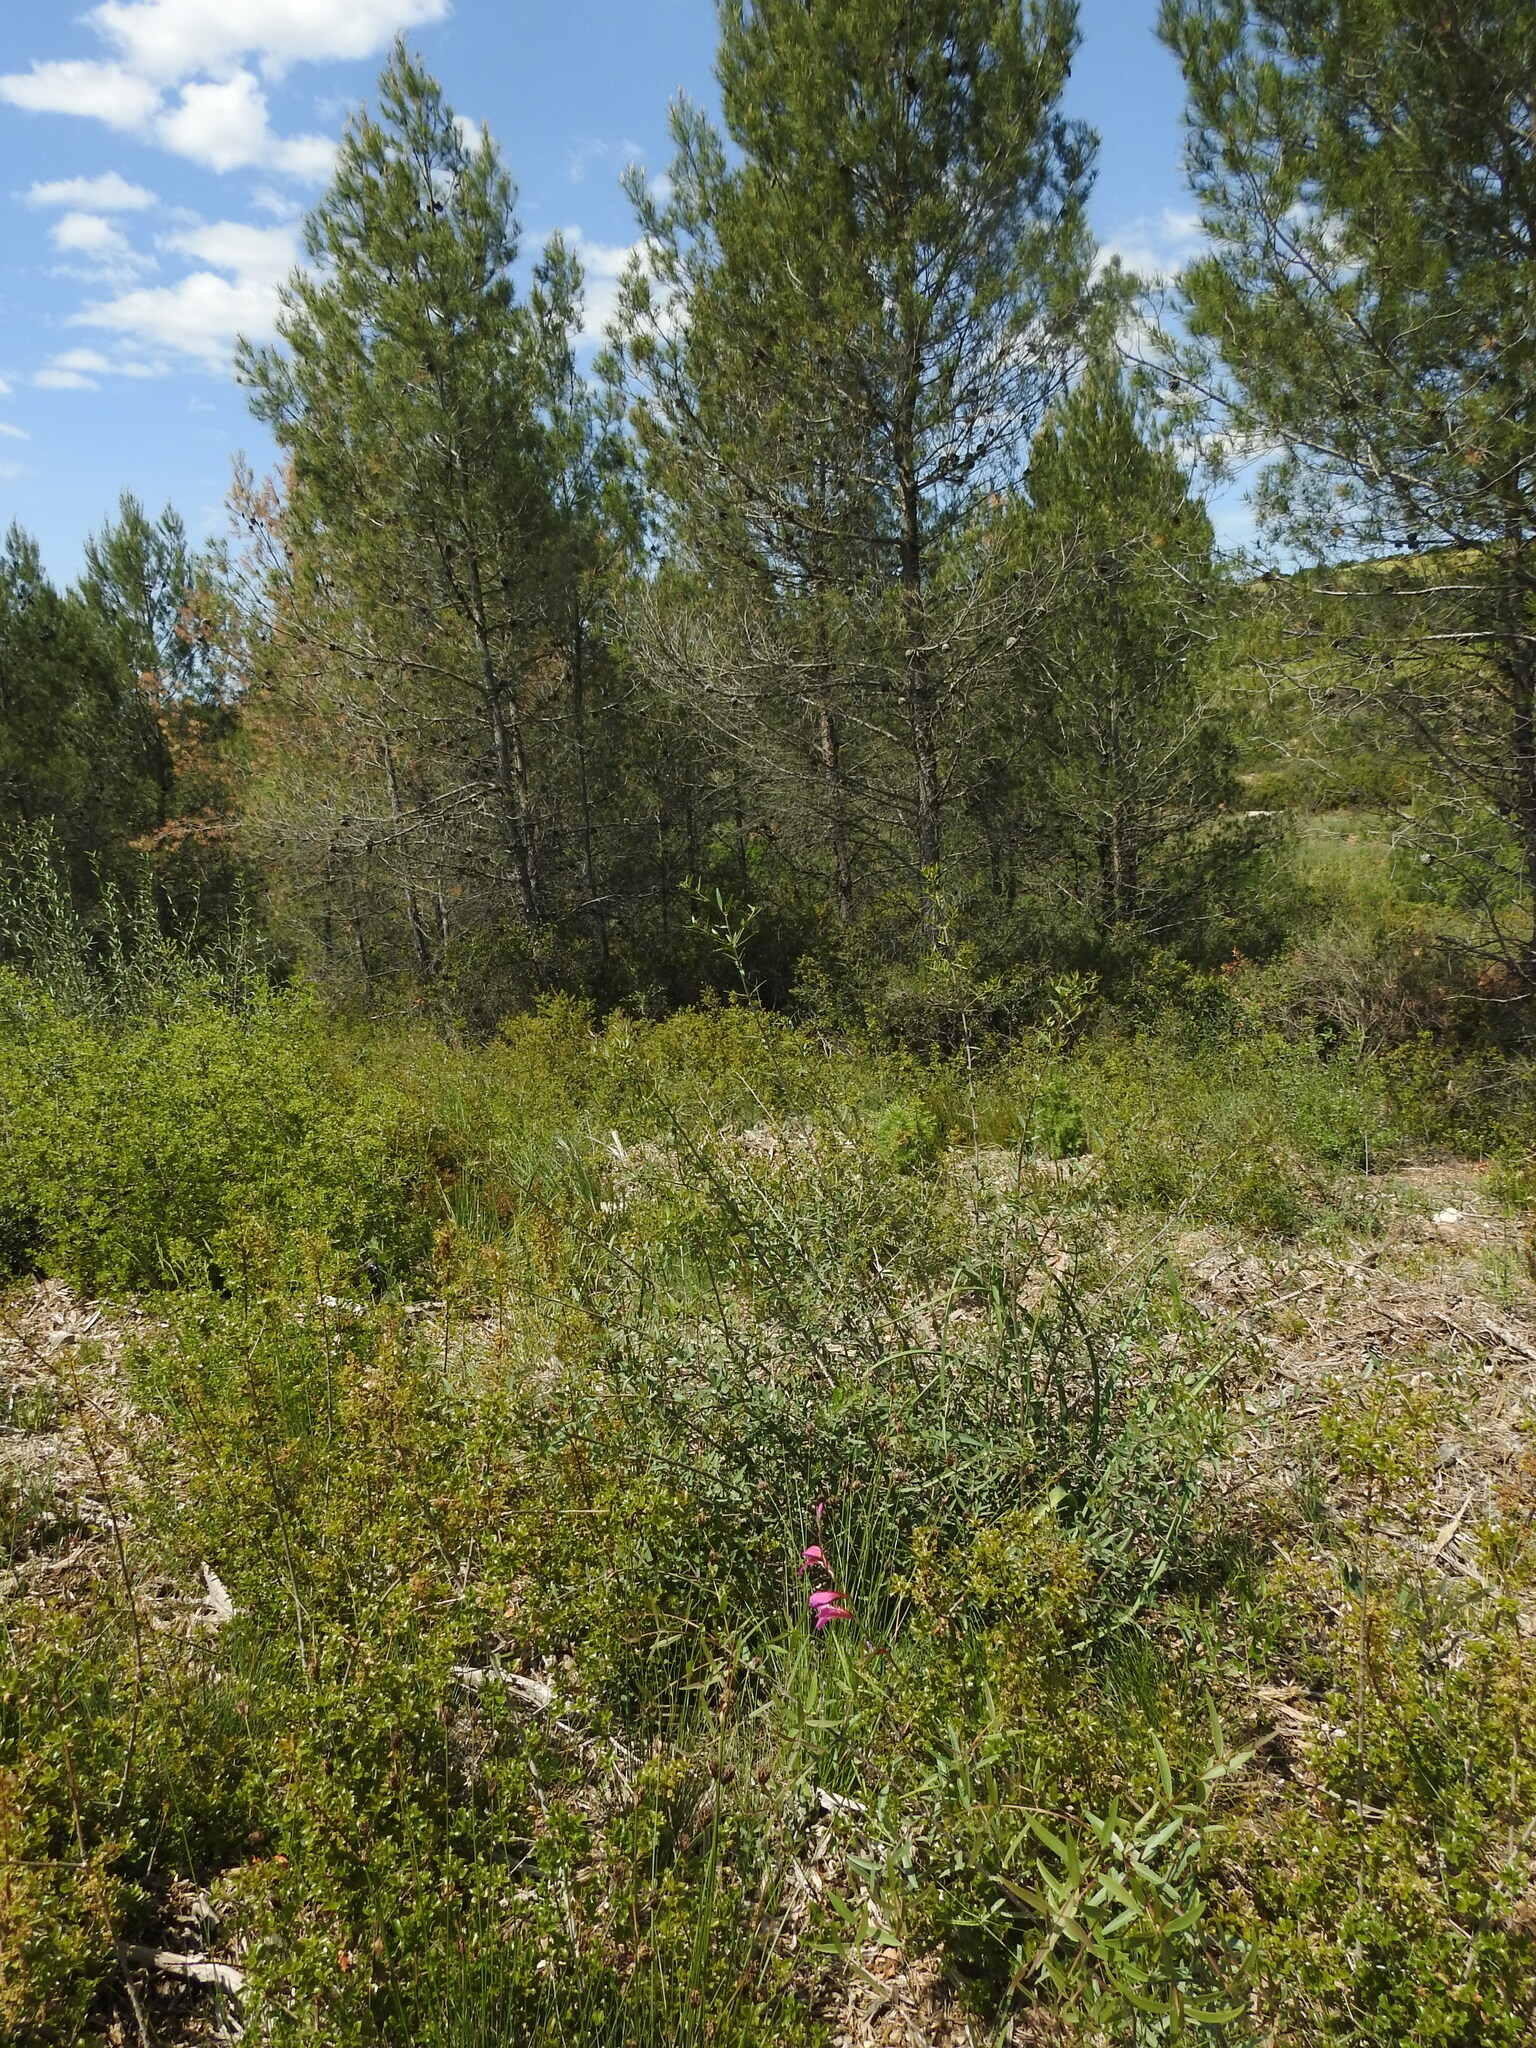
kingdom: Plantae
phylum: Tracheophyta
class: Liliopsida
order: Asparagales
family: Iridaceae
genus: Gladiolus
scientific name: Gladiolus dubius
